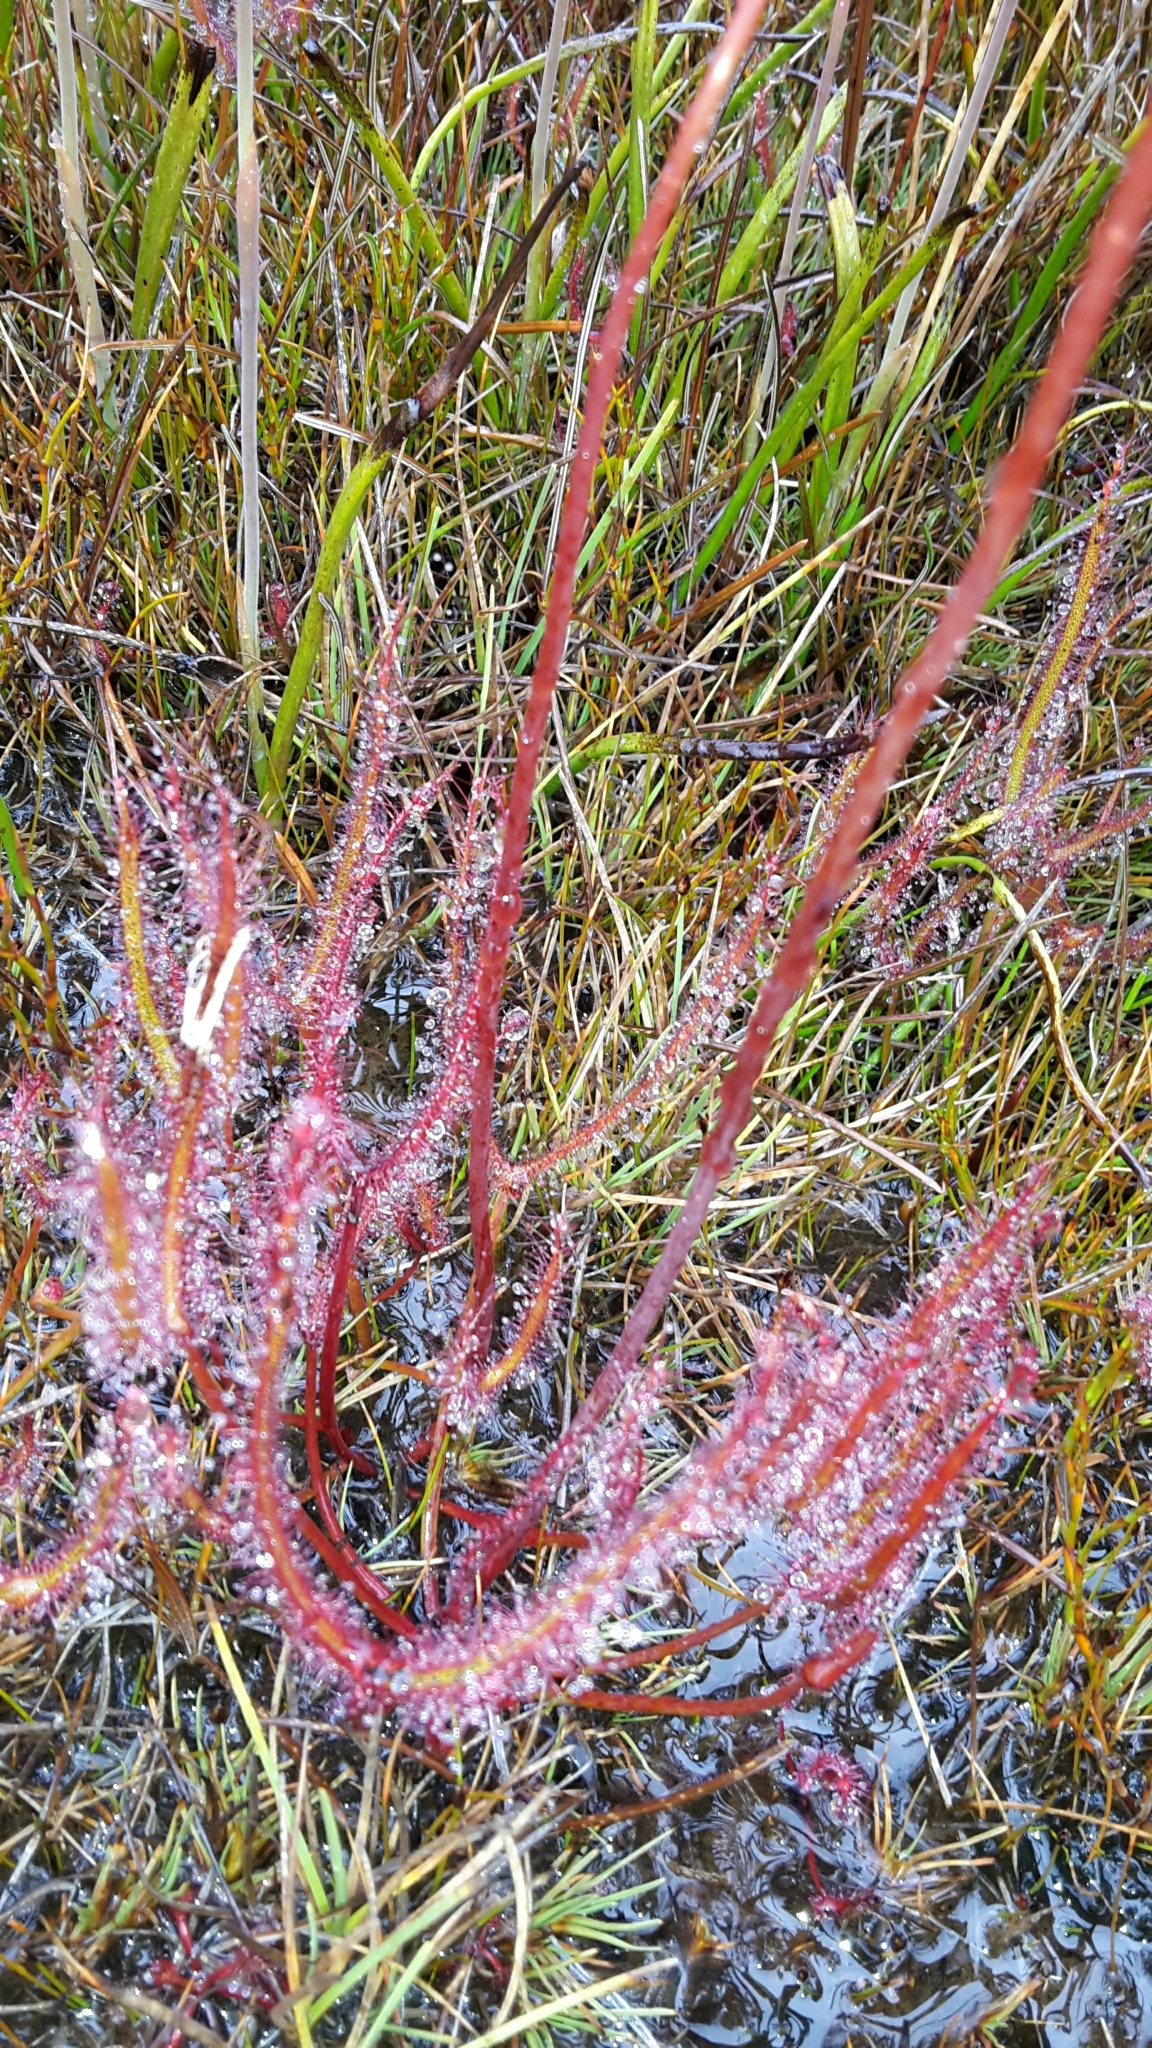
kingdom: Plantae
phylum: Tracheophyta
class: Magnoliopsida
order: Caryophyllales
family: Droseraceae
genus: Drosera
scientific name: Drosera binata
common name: Forked sundew
